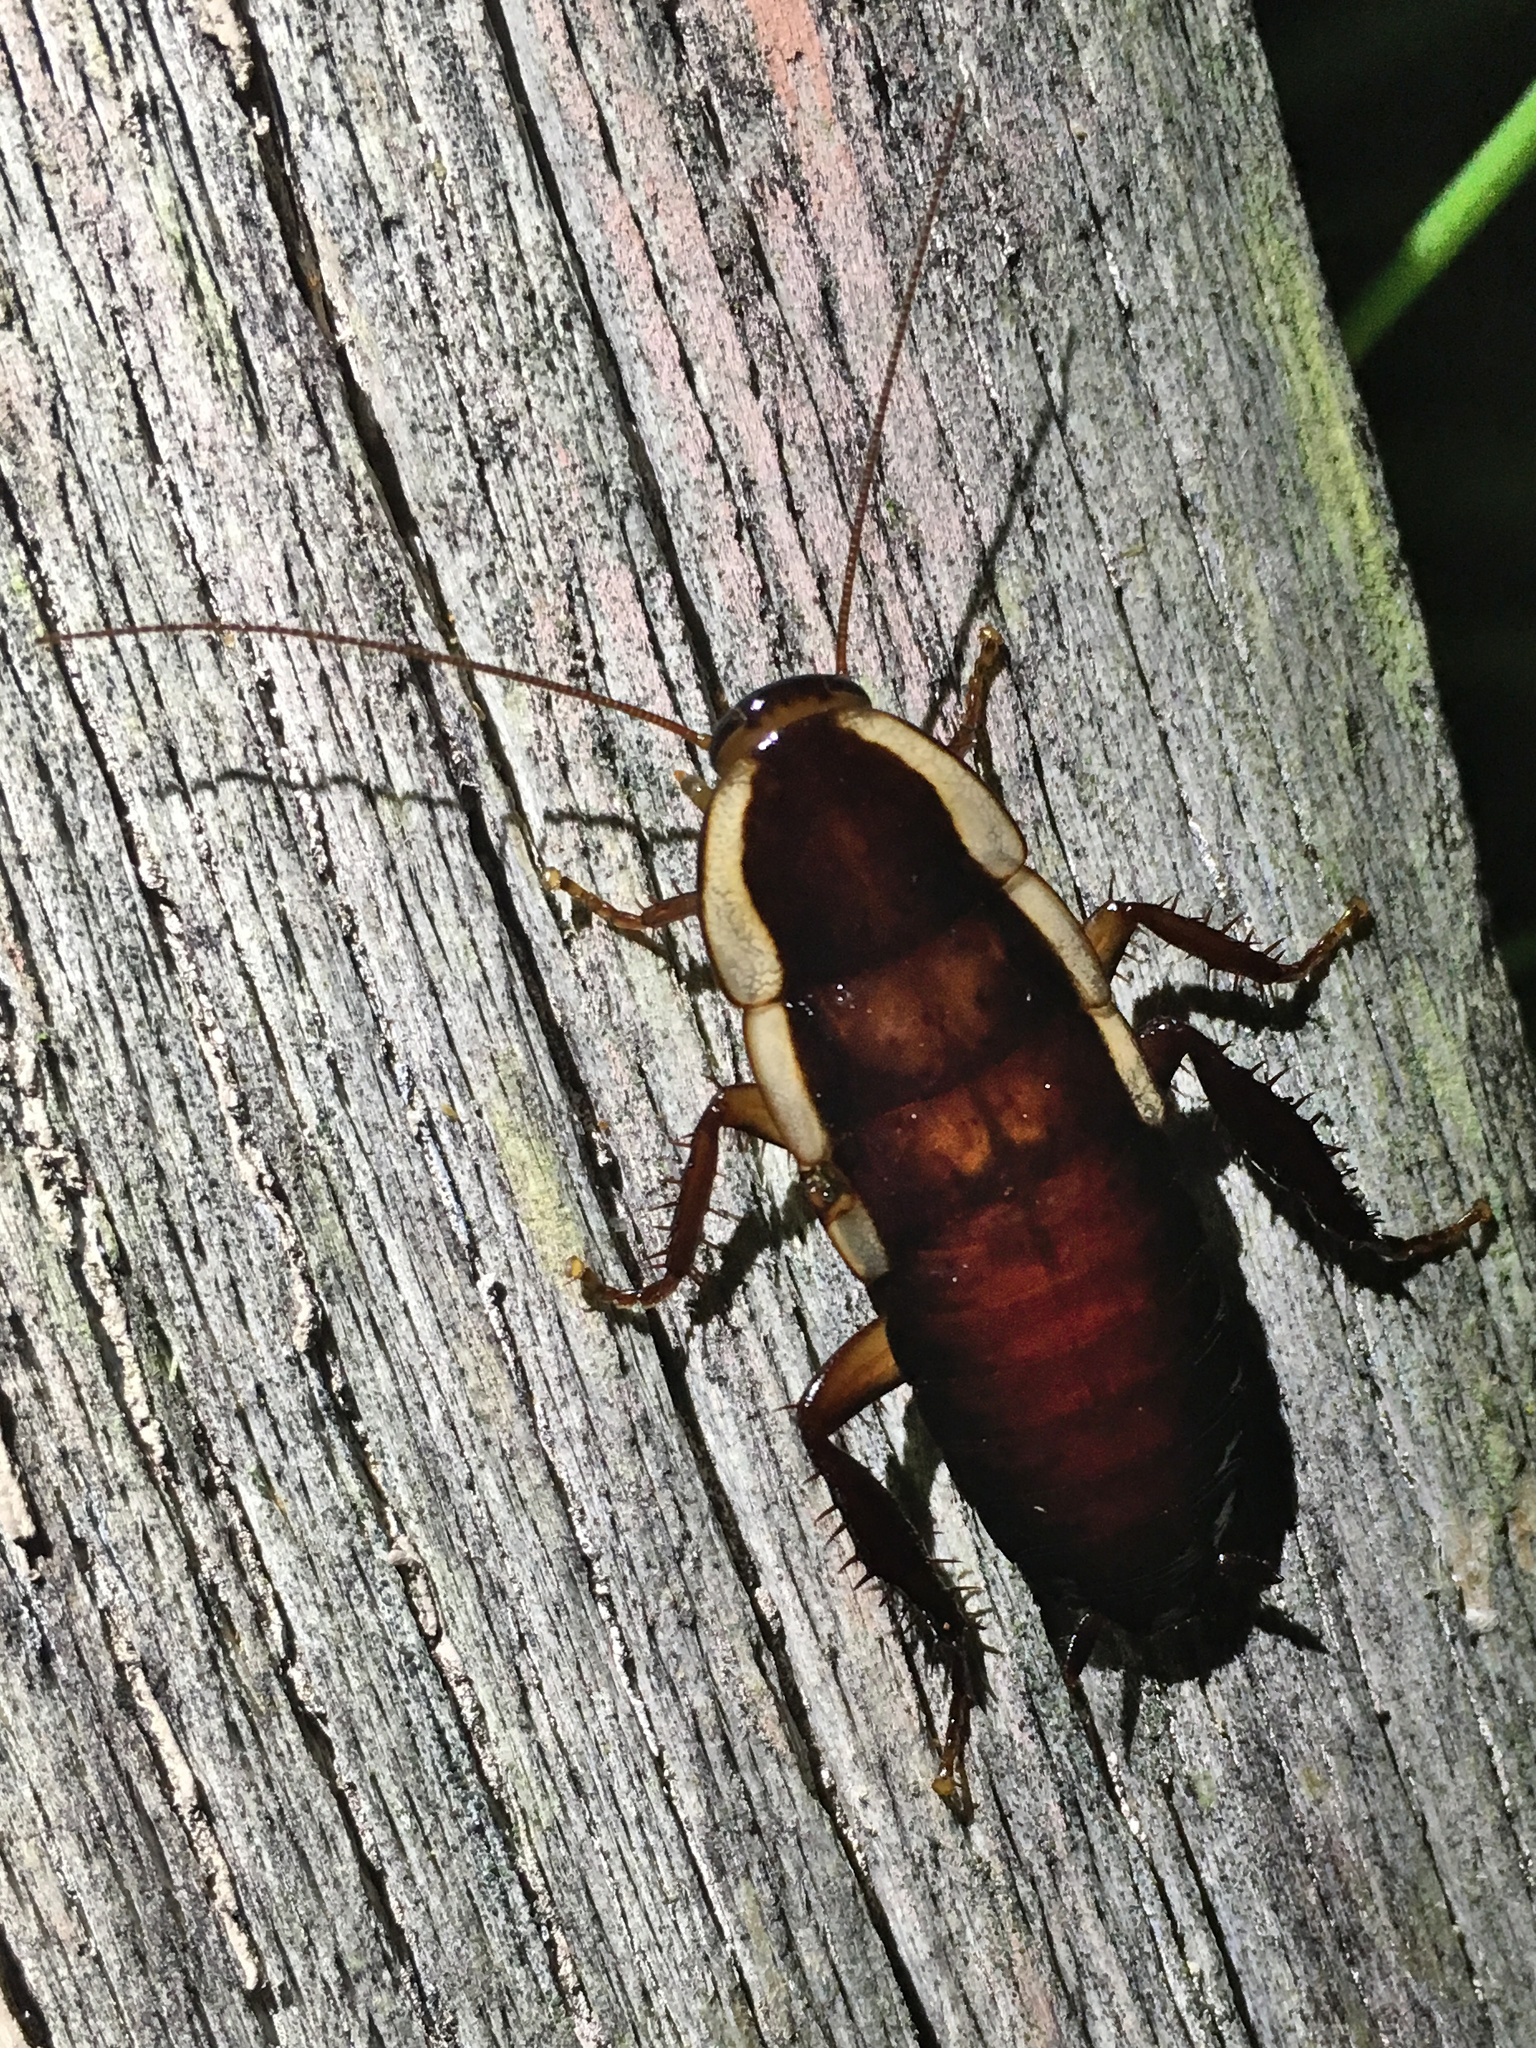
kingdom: Animalia
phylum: Arthropoda
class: Insecta
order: Blattodea
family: Blattidae
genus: Drymaplaneta
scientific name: Drymaplaneta semivitta
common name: Gisborne cockroach
